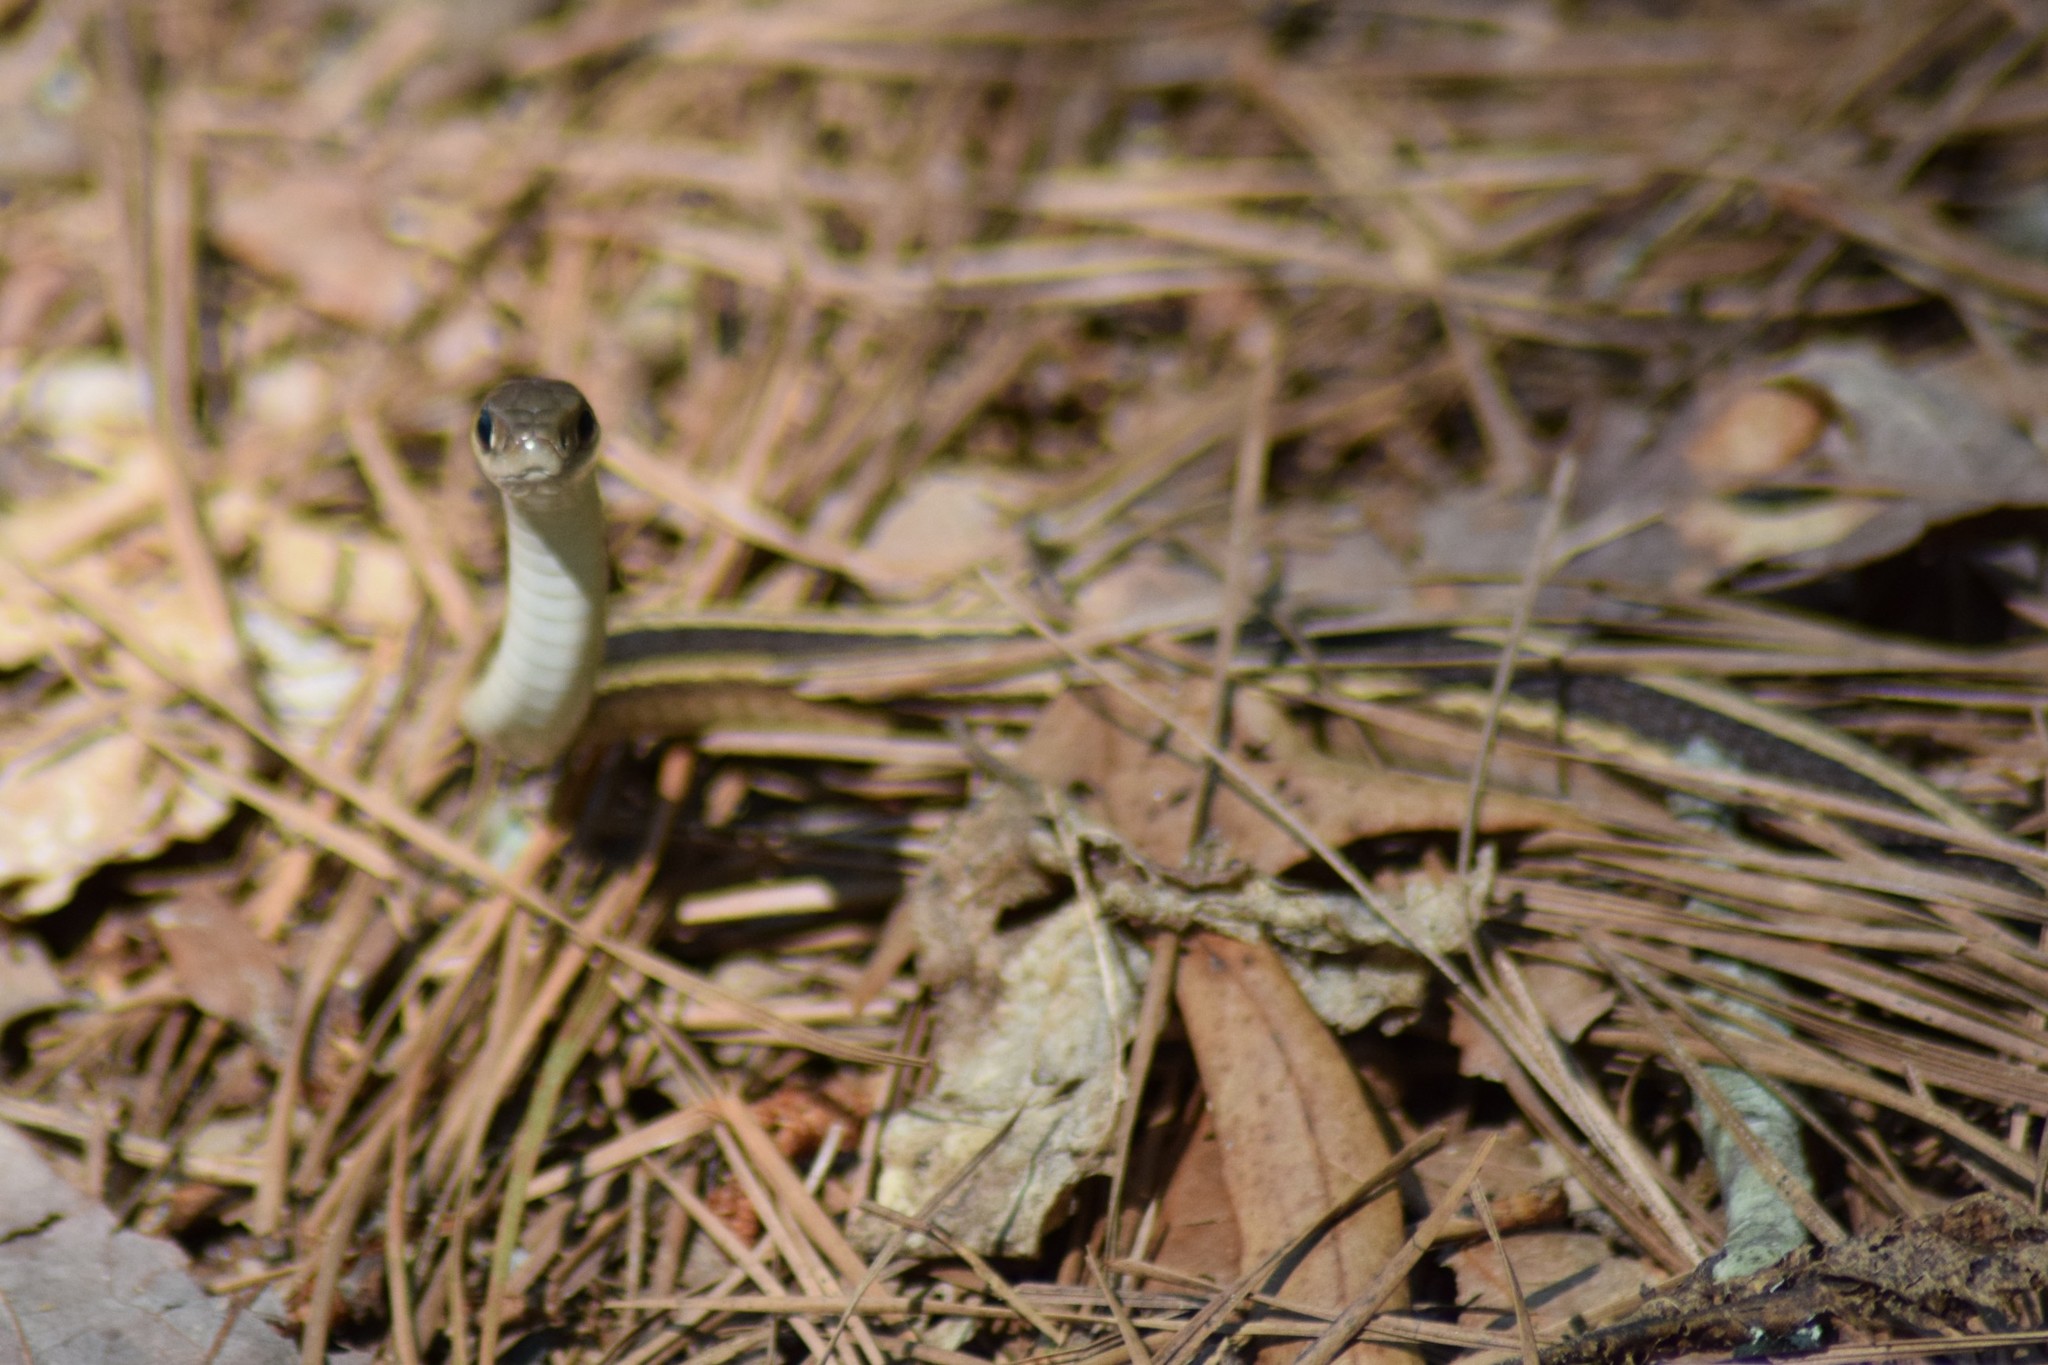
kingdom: Animalia
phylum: Chordata
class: Squamata
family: Colubridae
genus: Thamnophis
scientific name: Thamnophis saurita
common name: Eastern ribbonsnake
